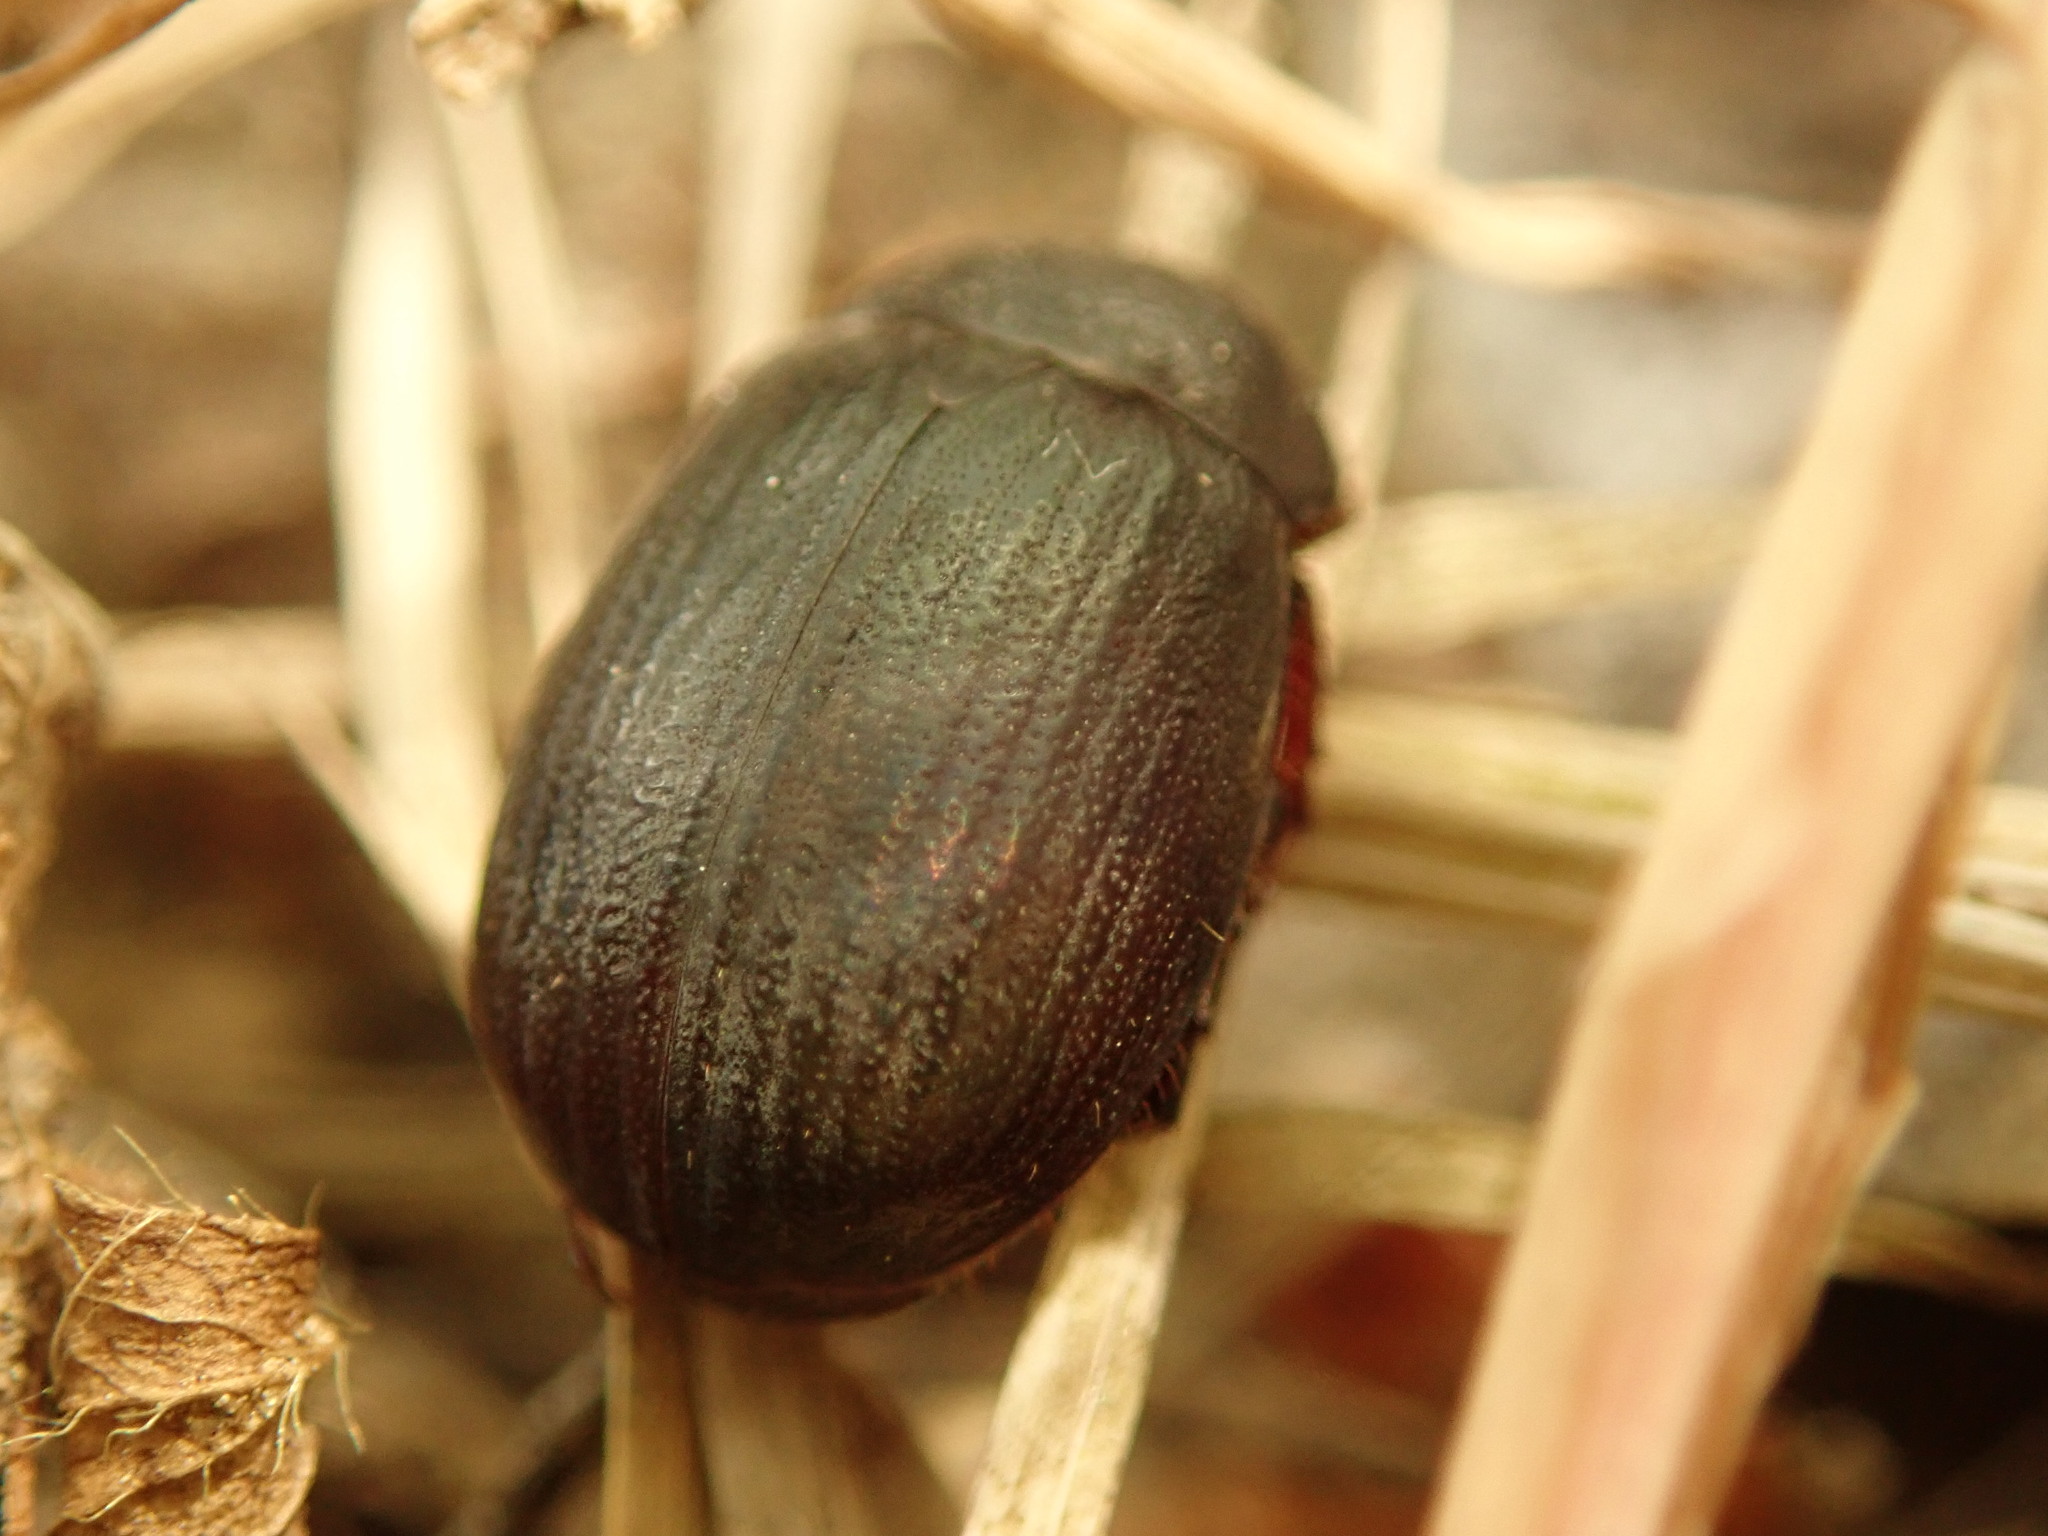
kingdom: Animalia
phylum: Arthropoda
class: Insecta
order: Coleoptera
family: Scarabaeidae
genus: Maladera
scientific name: Maladera holosericea
